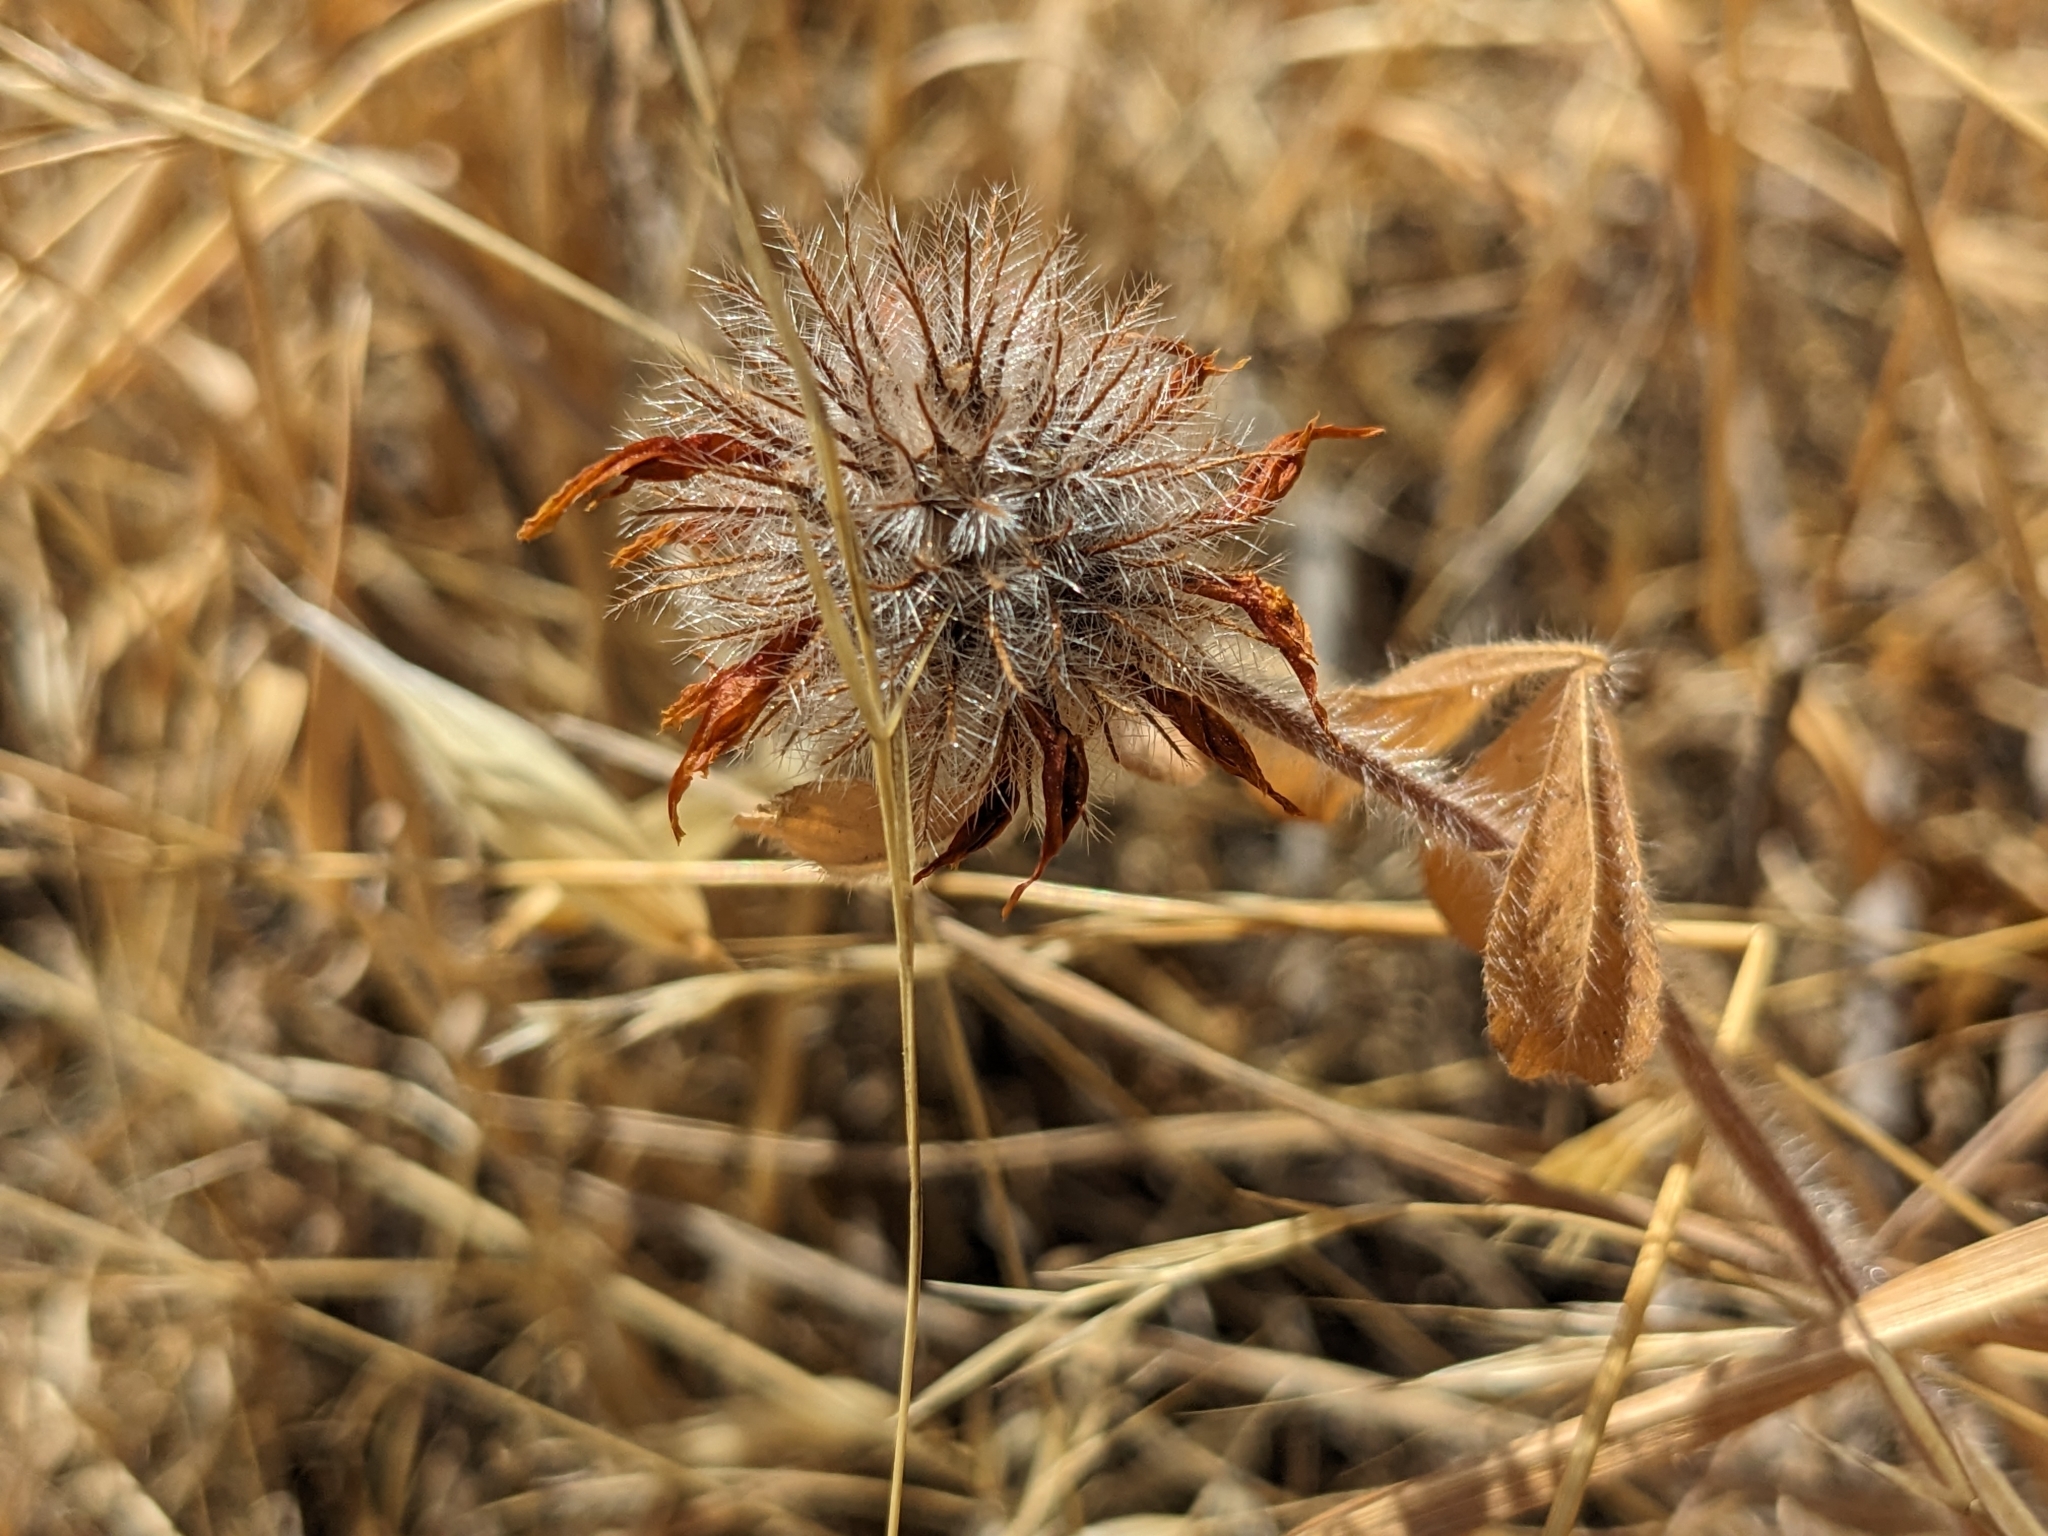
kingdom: Plantae
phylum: Tracheophyta
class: Magnoliopsida
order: Fabales
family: Fabaceae
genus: Trifolium
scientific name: Trifolium hirtum
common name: Rose clover
